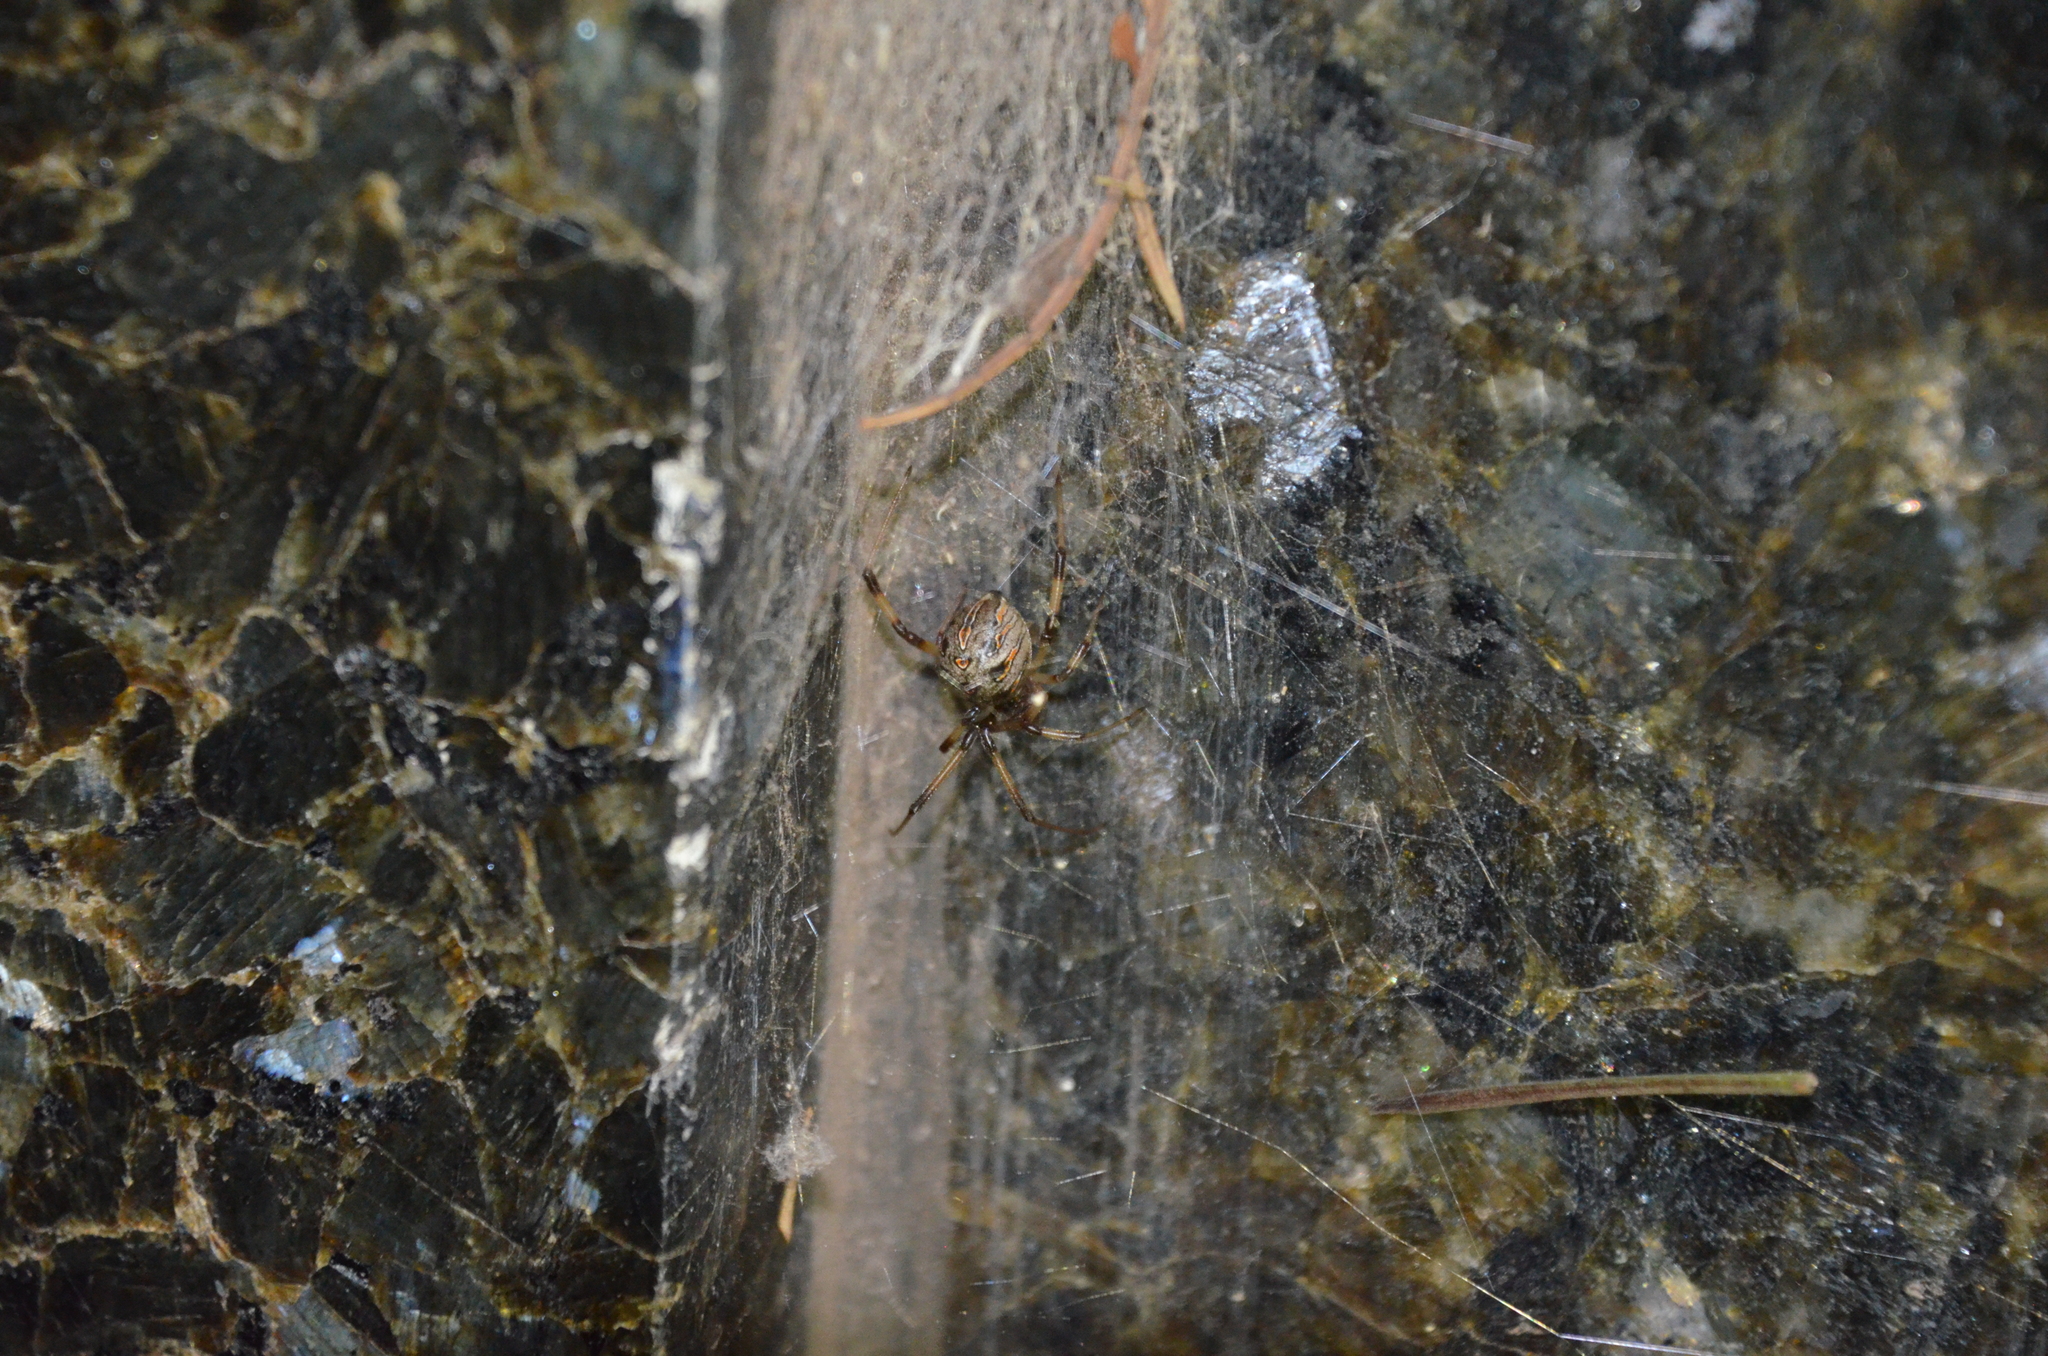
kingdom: Animalia
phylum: Arthropoda
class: Arachnida
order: Araneae
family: Theridiidae
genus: Latrodectus
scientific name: Latrodectus geometricus
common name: Brown widow spider
